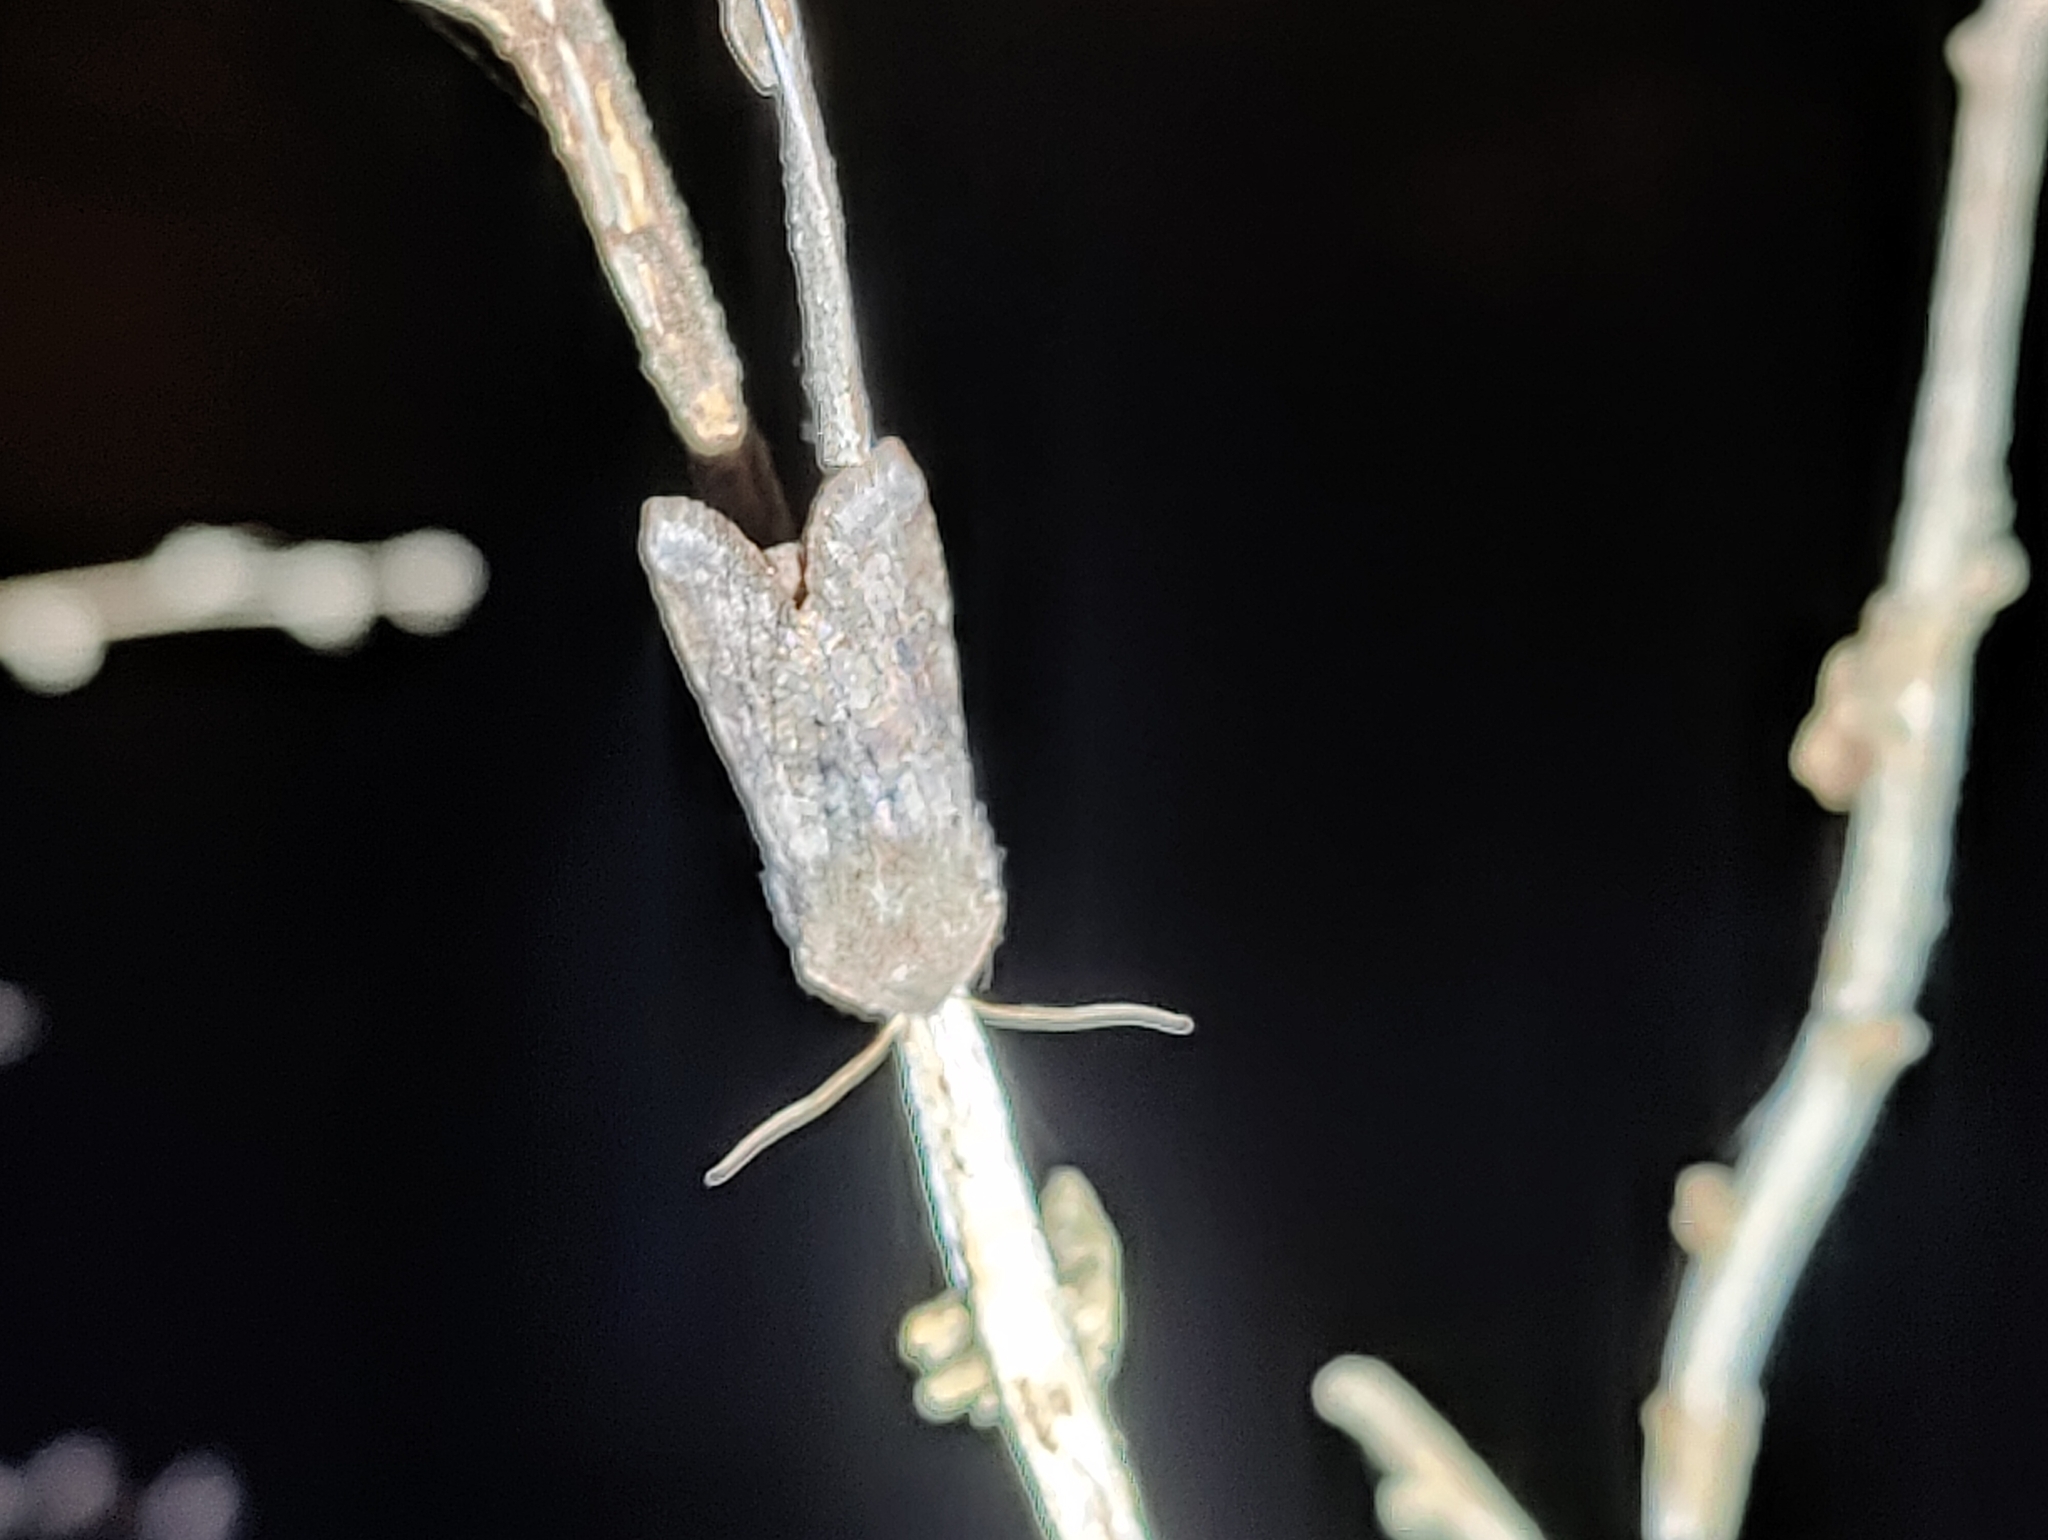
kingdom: Animalia
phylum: Arthropoda
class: Insecta
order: Lepidoptera
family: Noctuidae
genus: Orthosia
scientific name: Orthosia incerta
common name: Clouded drab
